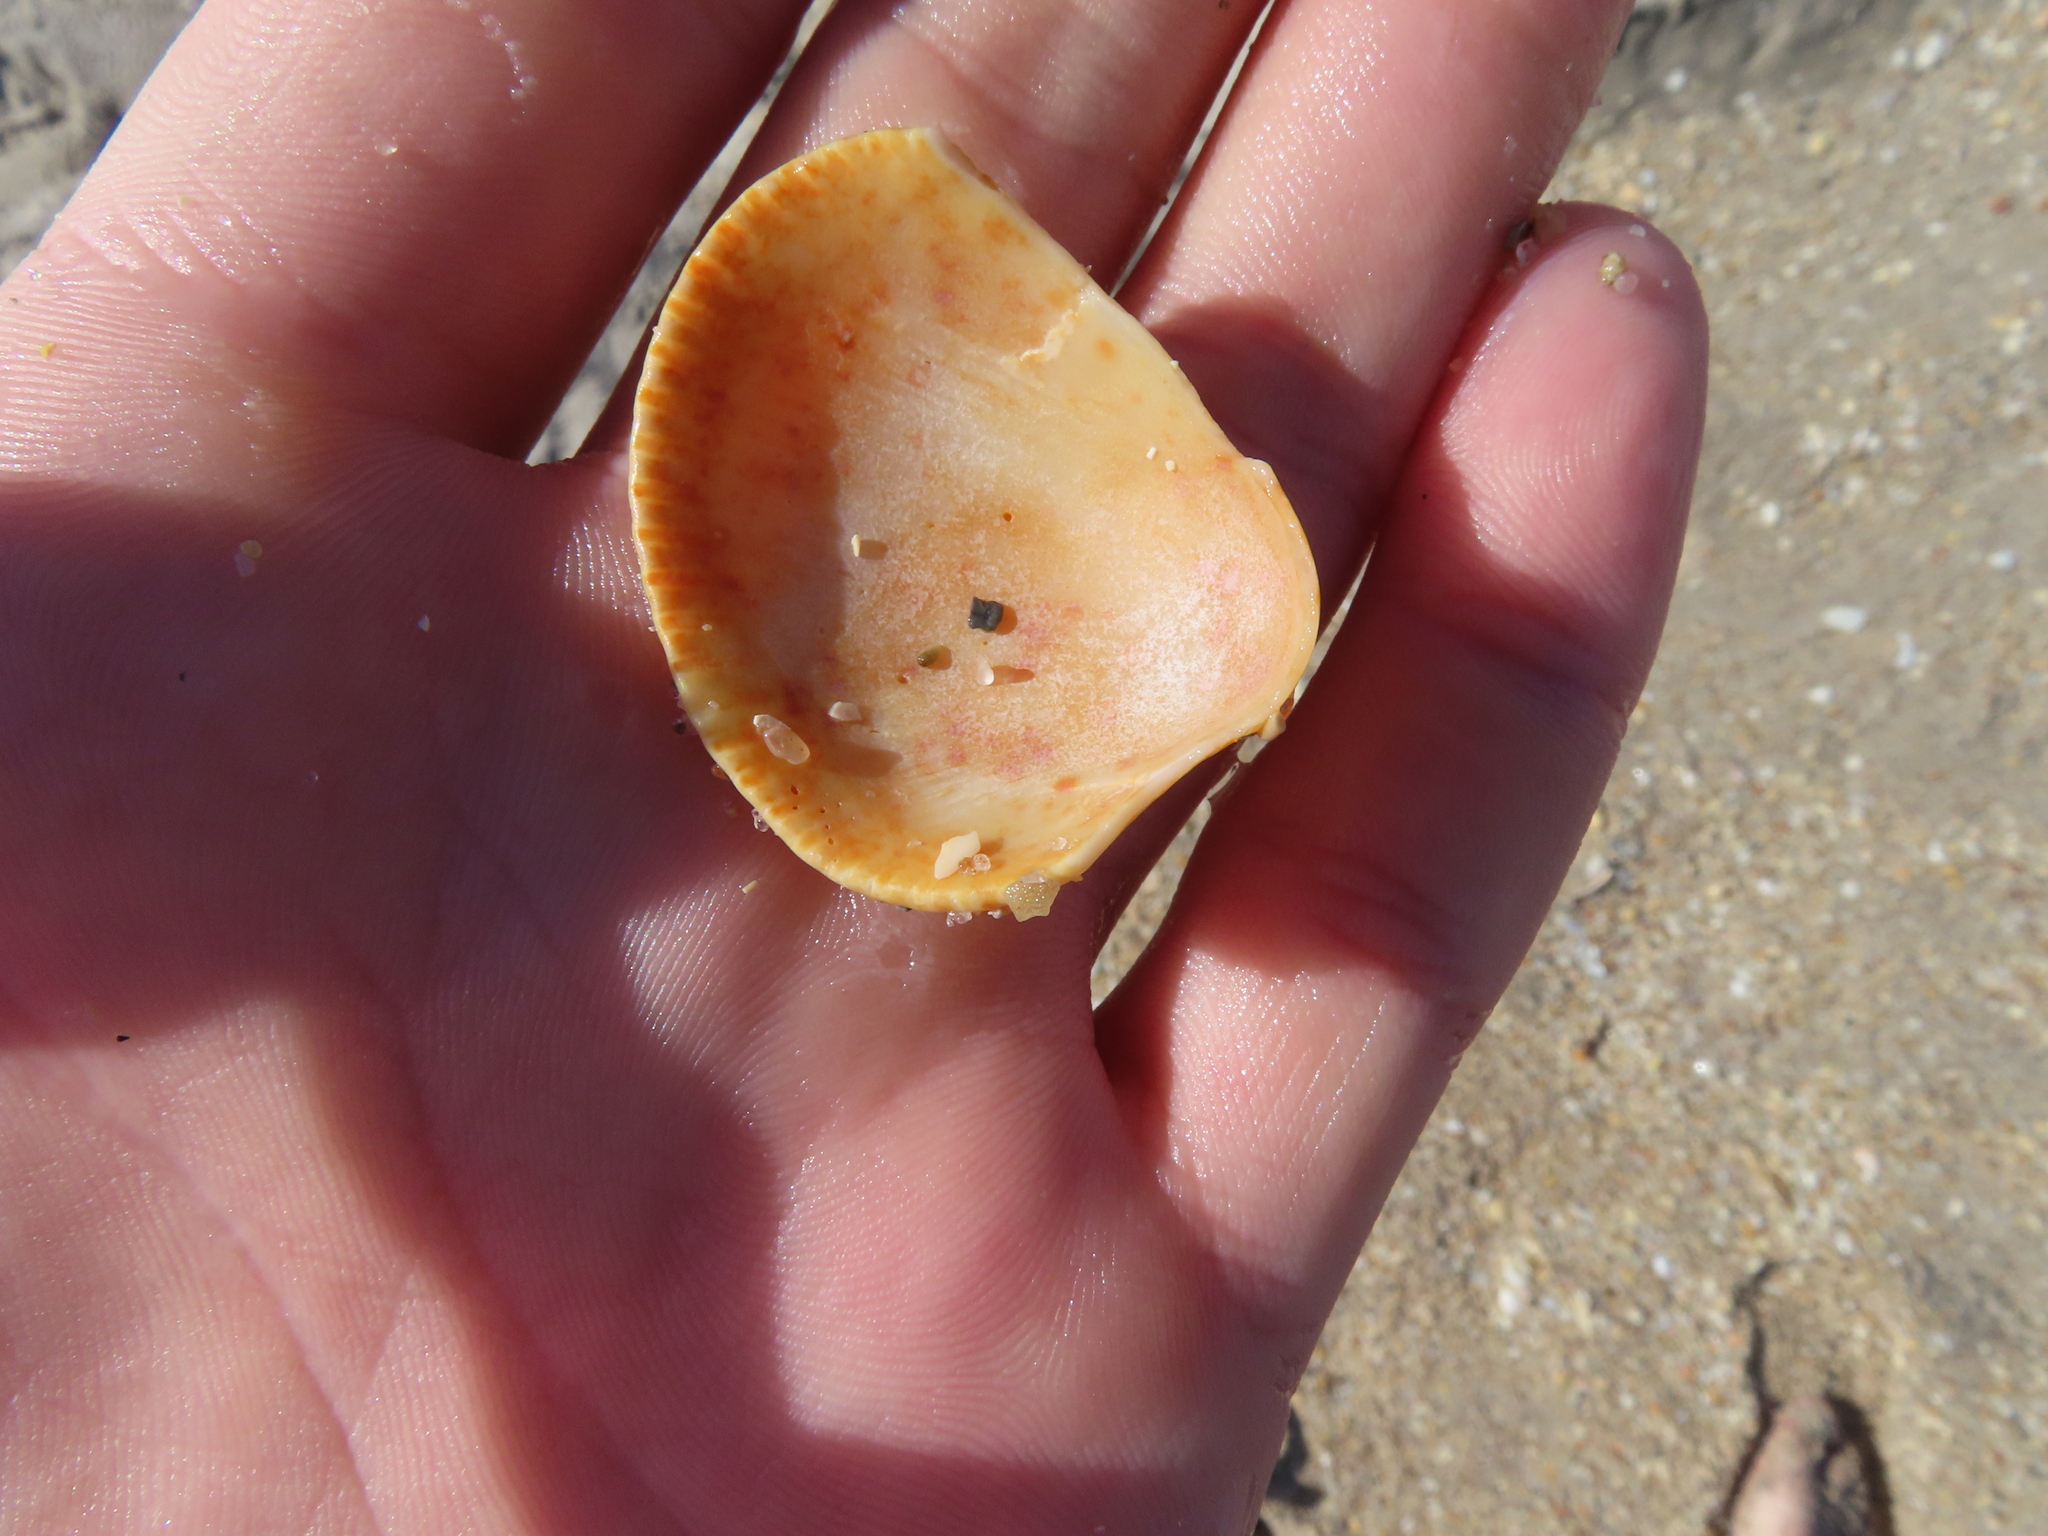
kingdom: Animalia
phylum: Mollusca
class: Bivalvia
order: Cardiida
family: Cardiidae
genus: Dinocardium
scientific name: Dinocardium robustum
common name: Atlantic giant cockle
